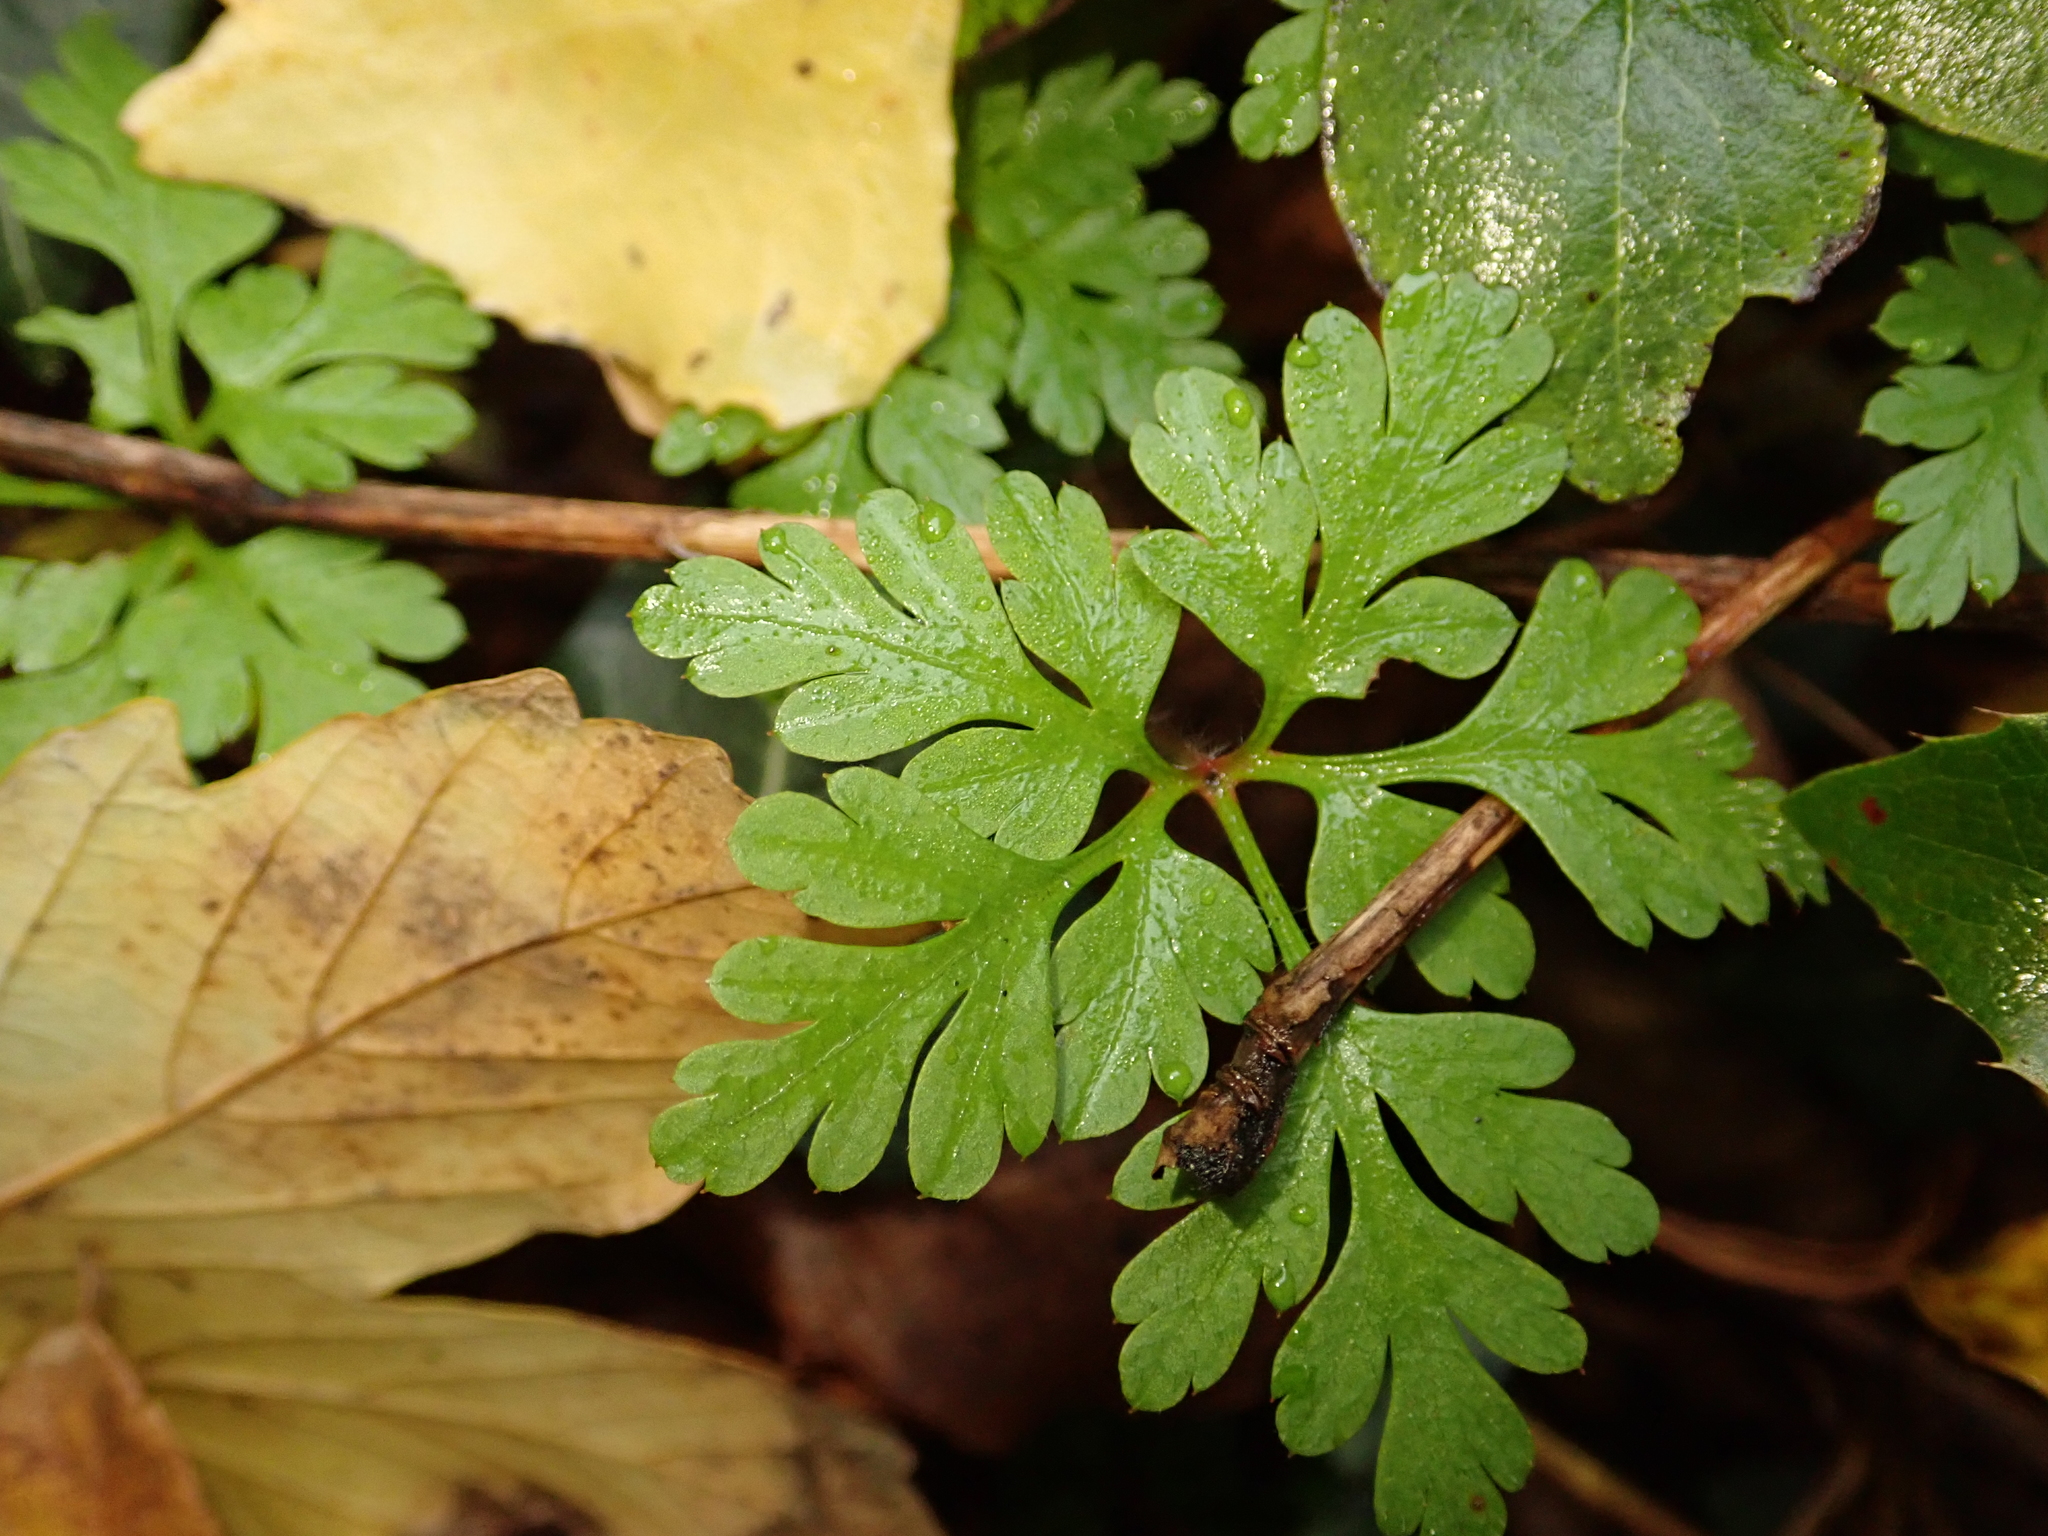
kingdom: Plantae
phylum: Tracheophyta
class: Magnoliopsida
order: Geraniales
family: Geraniaceae
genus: Geranium
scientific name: Geranium robertianum
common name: Herb-robert
